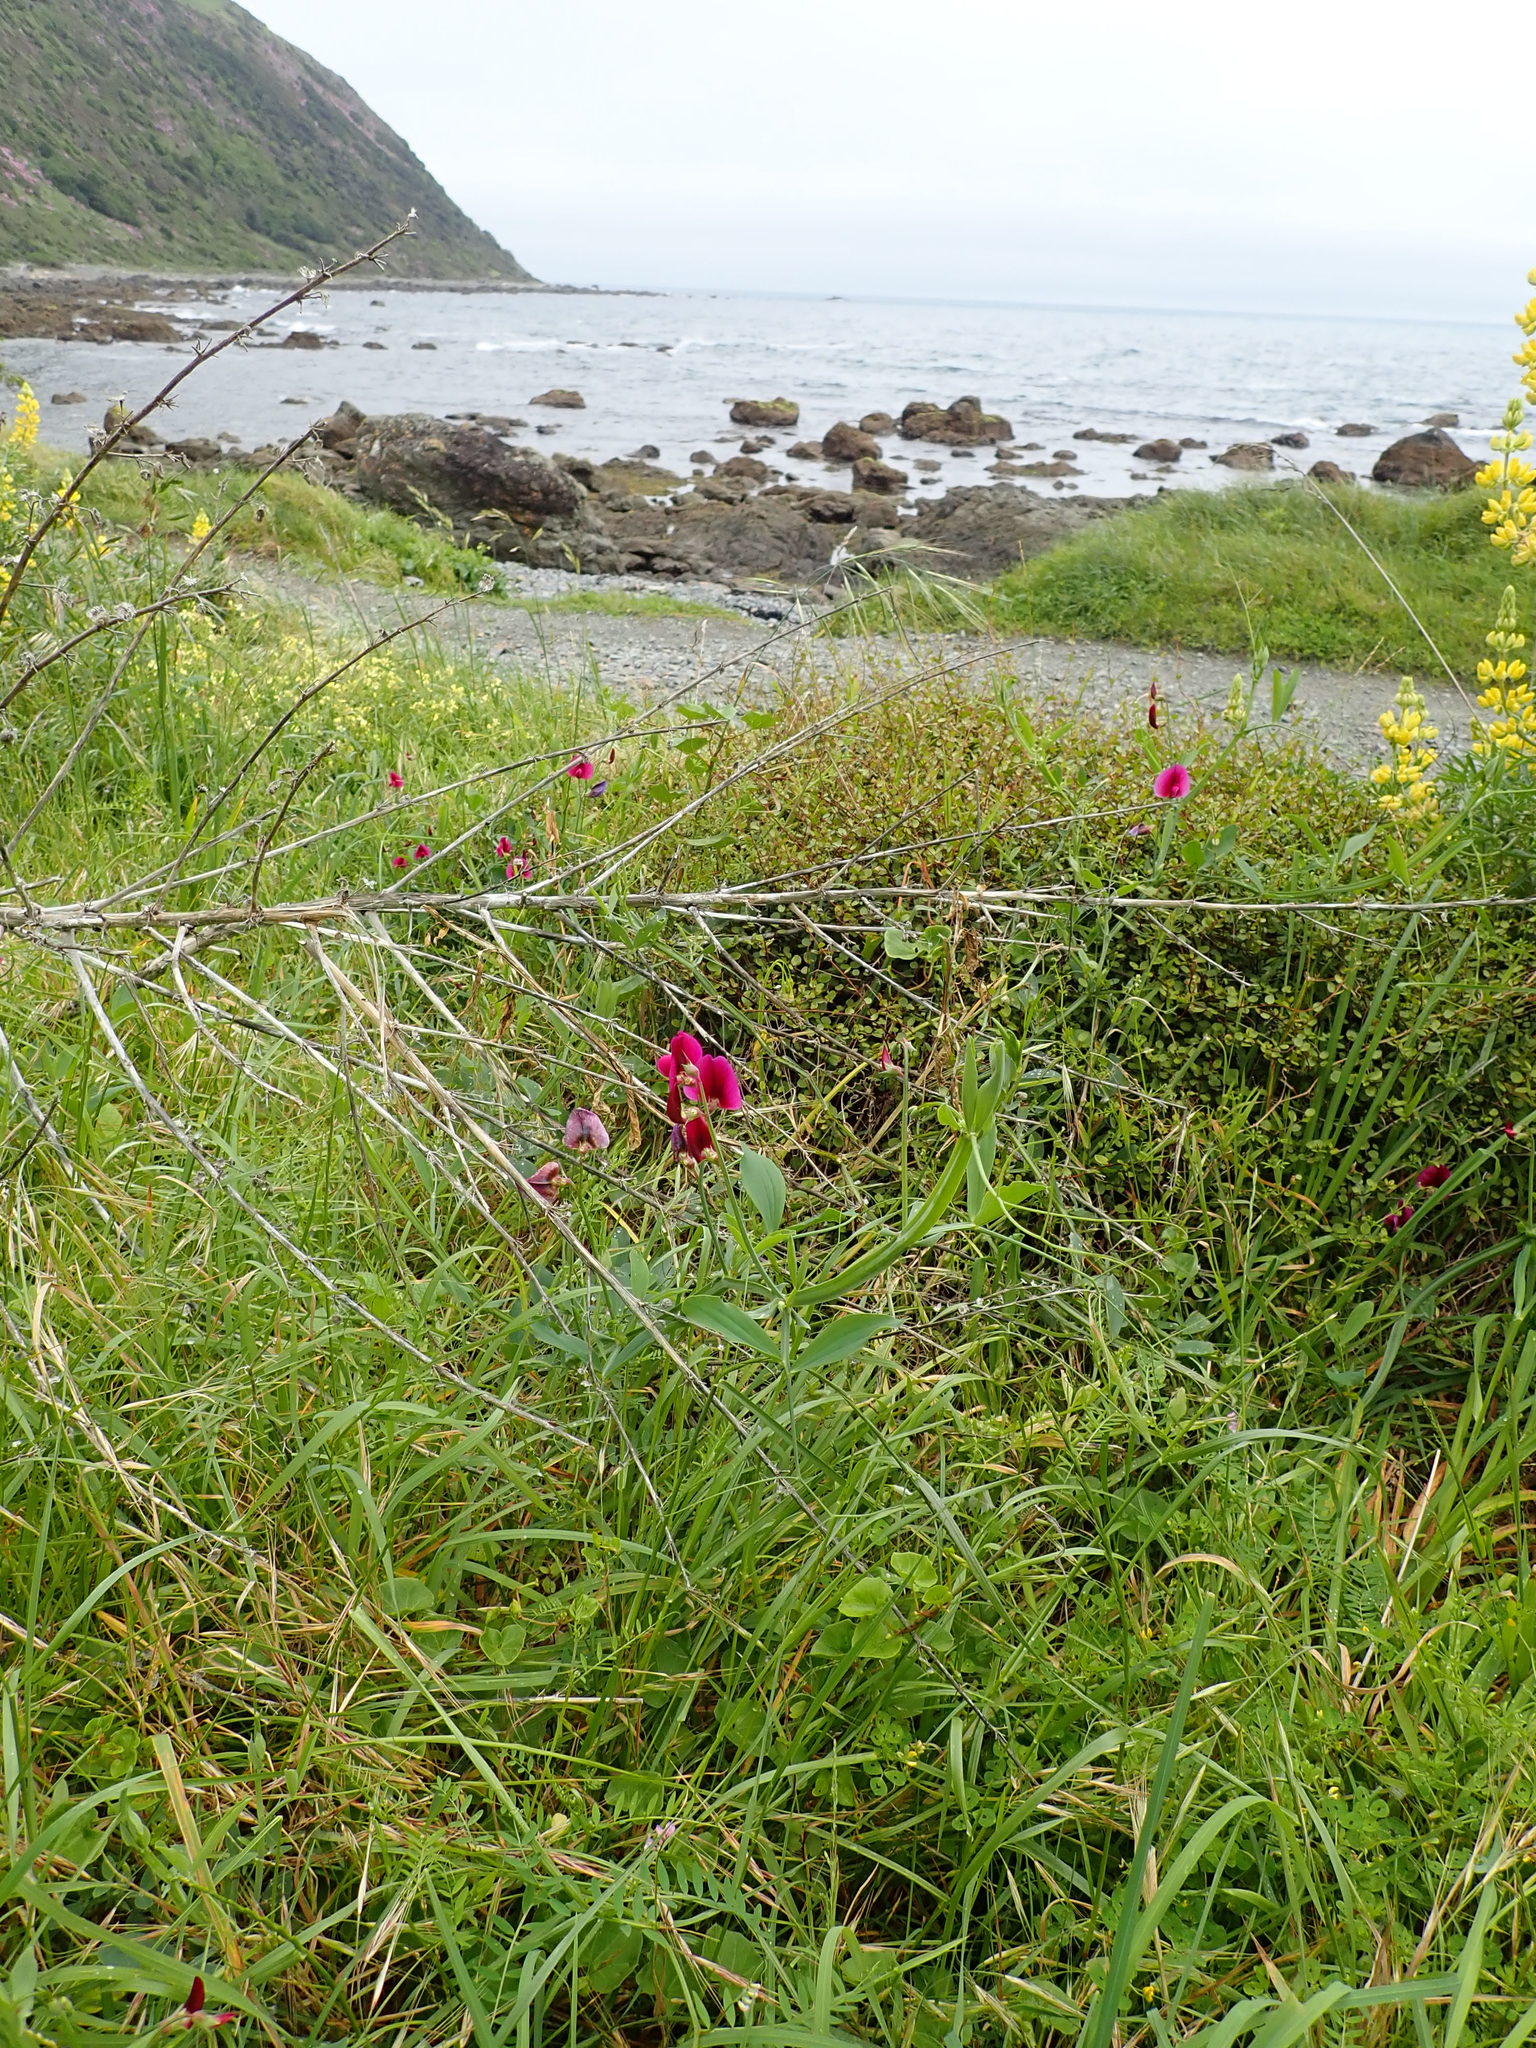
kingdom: Plantae
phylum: Tracheophyta
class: Magnoliopsida
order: Fabales
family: Fabaceae
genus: Lathyrus
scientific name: Lathyrus tingitanus
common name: Tangier pea
